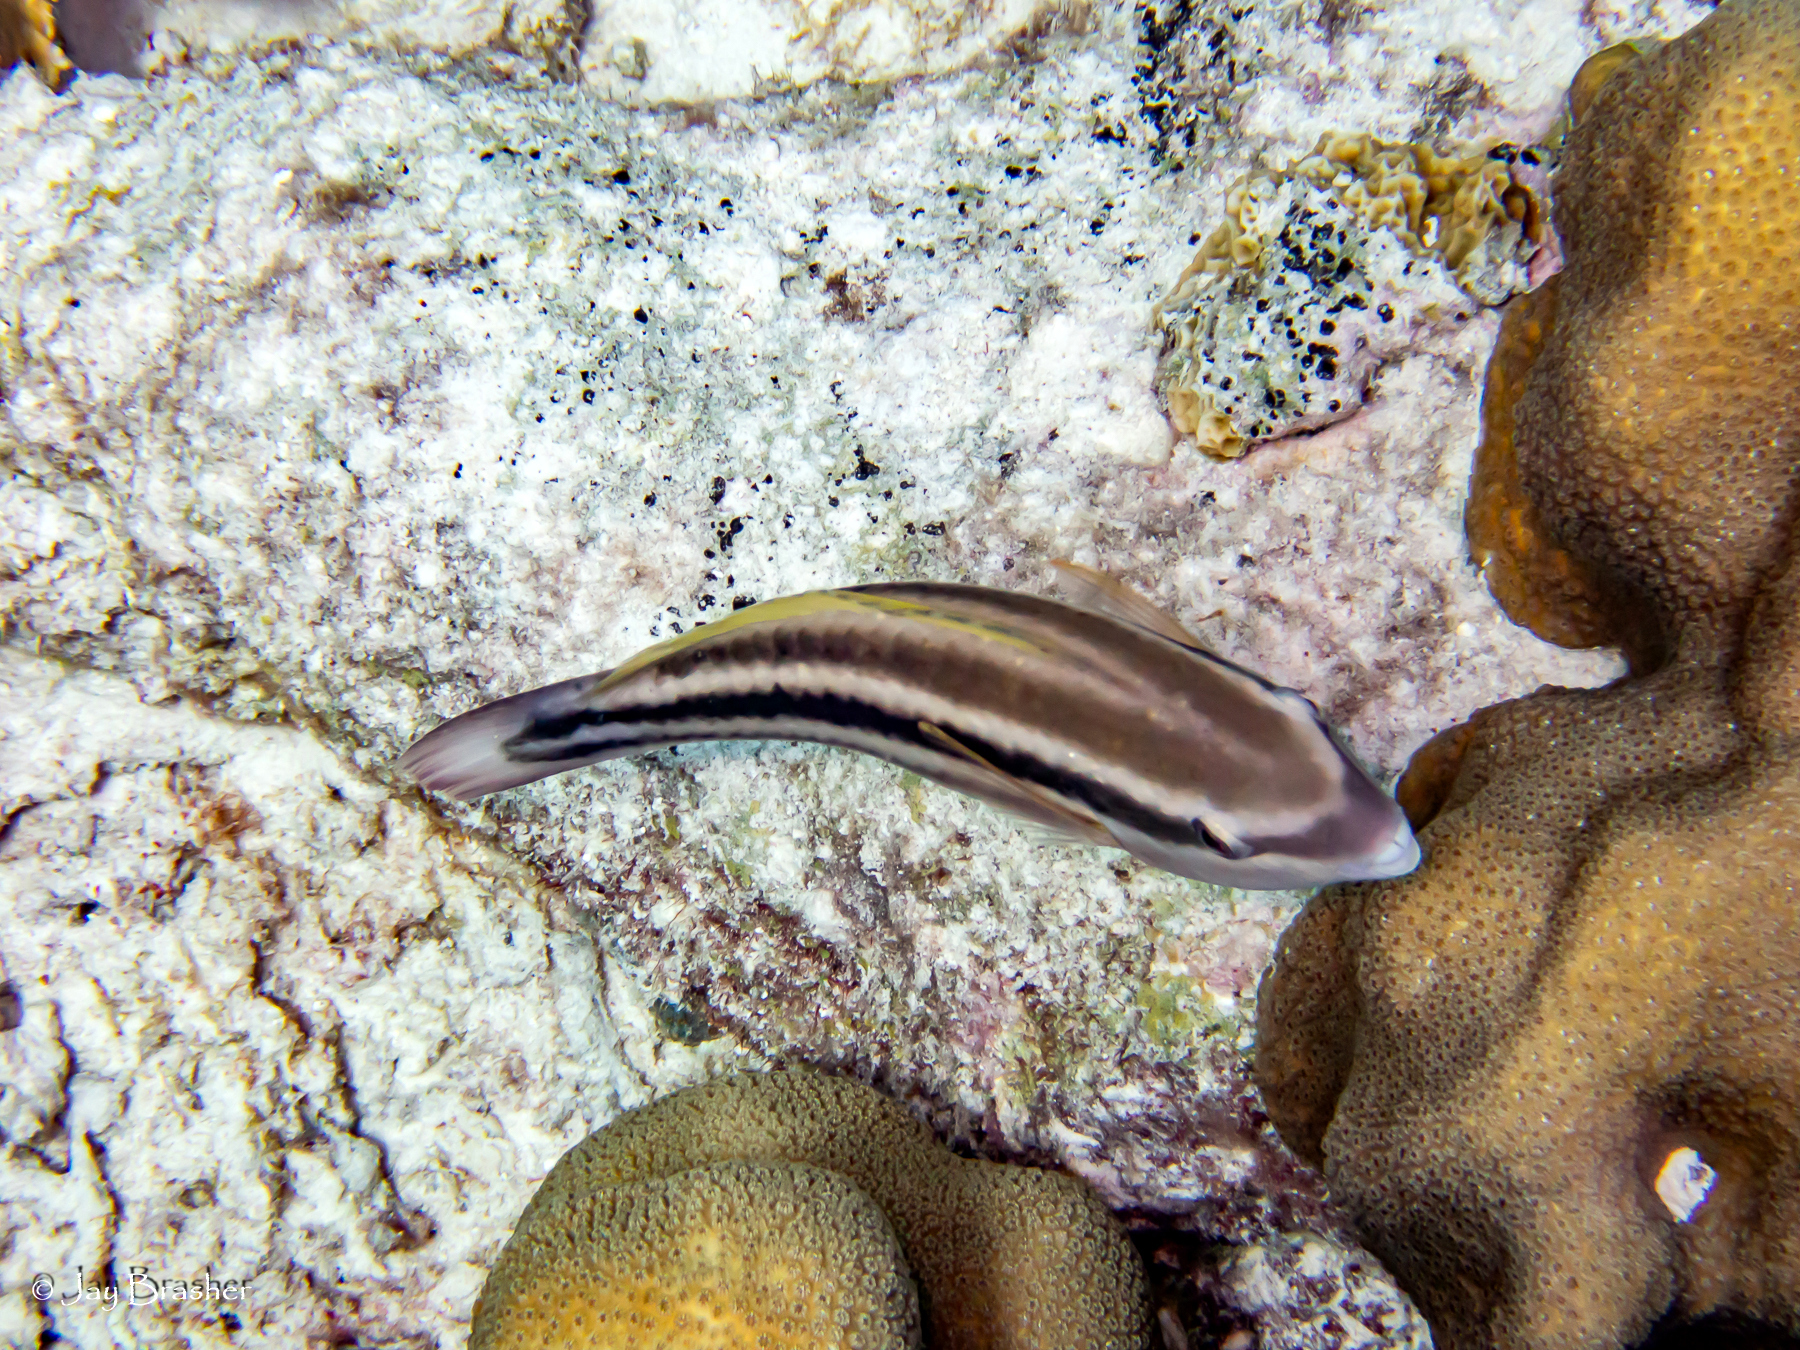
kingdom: Animalia
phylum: Porifera
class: Demospongiae
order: Clionaida
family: Clionaidae
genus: Cliona
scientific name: Cliona aprica
